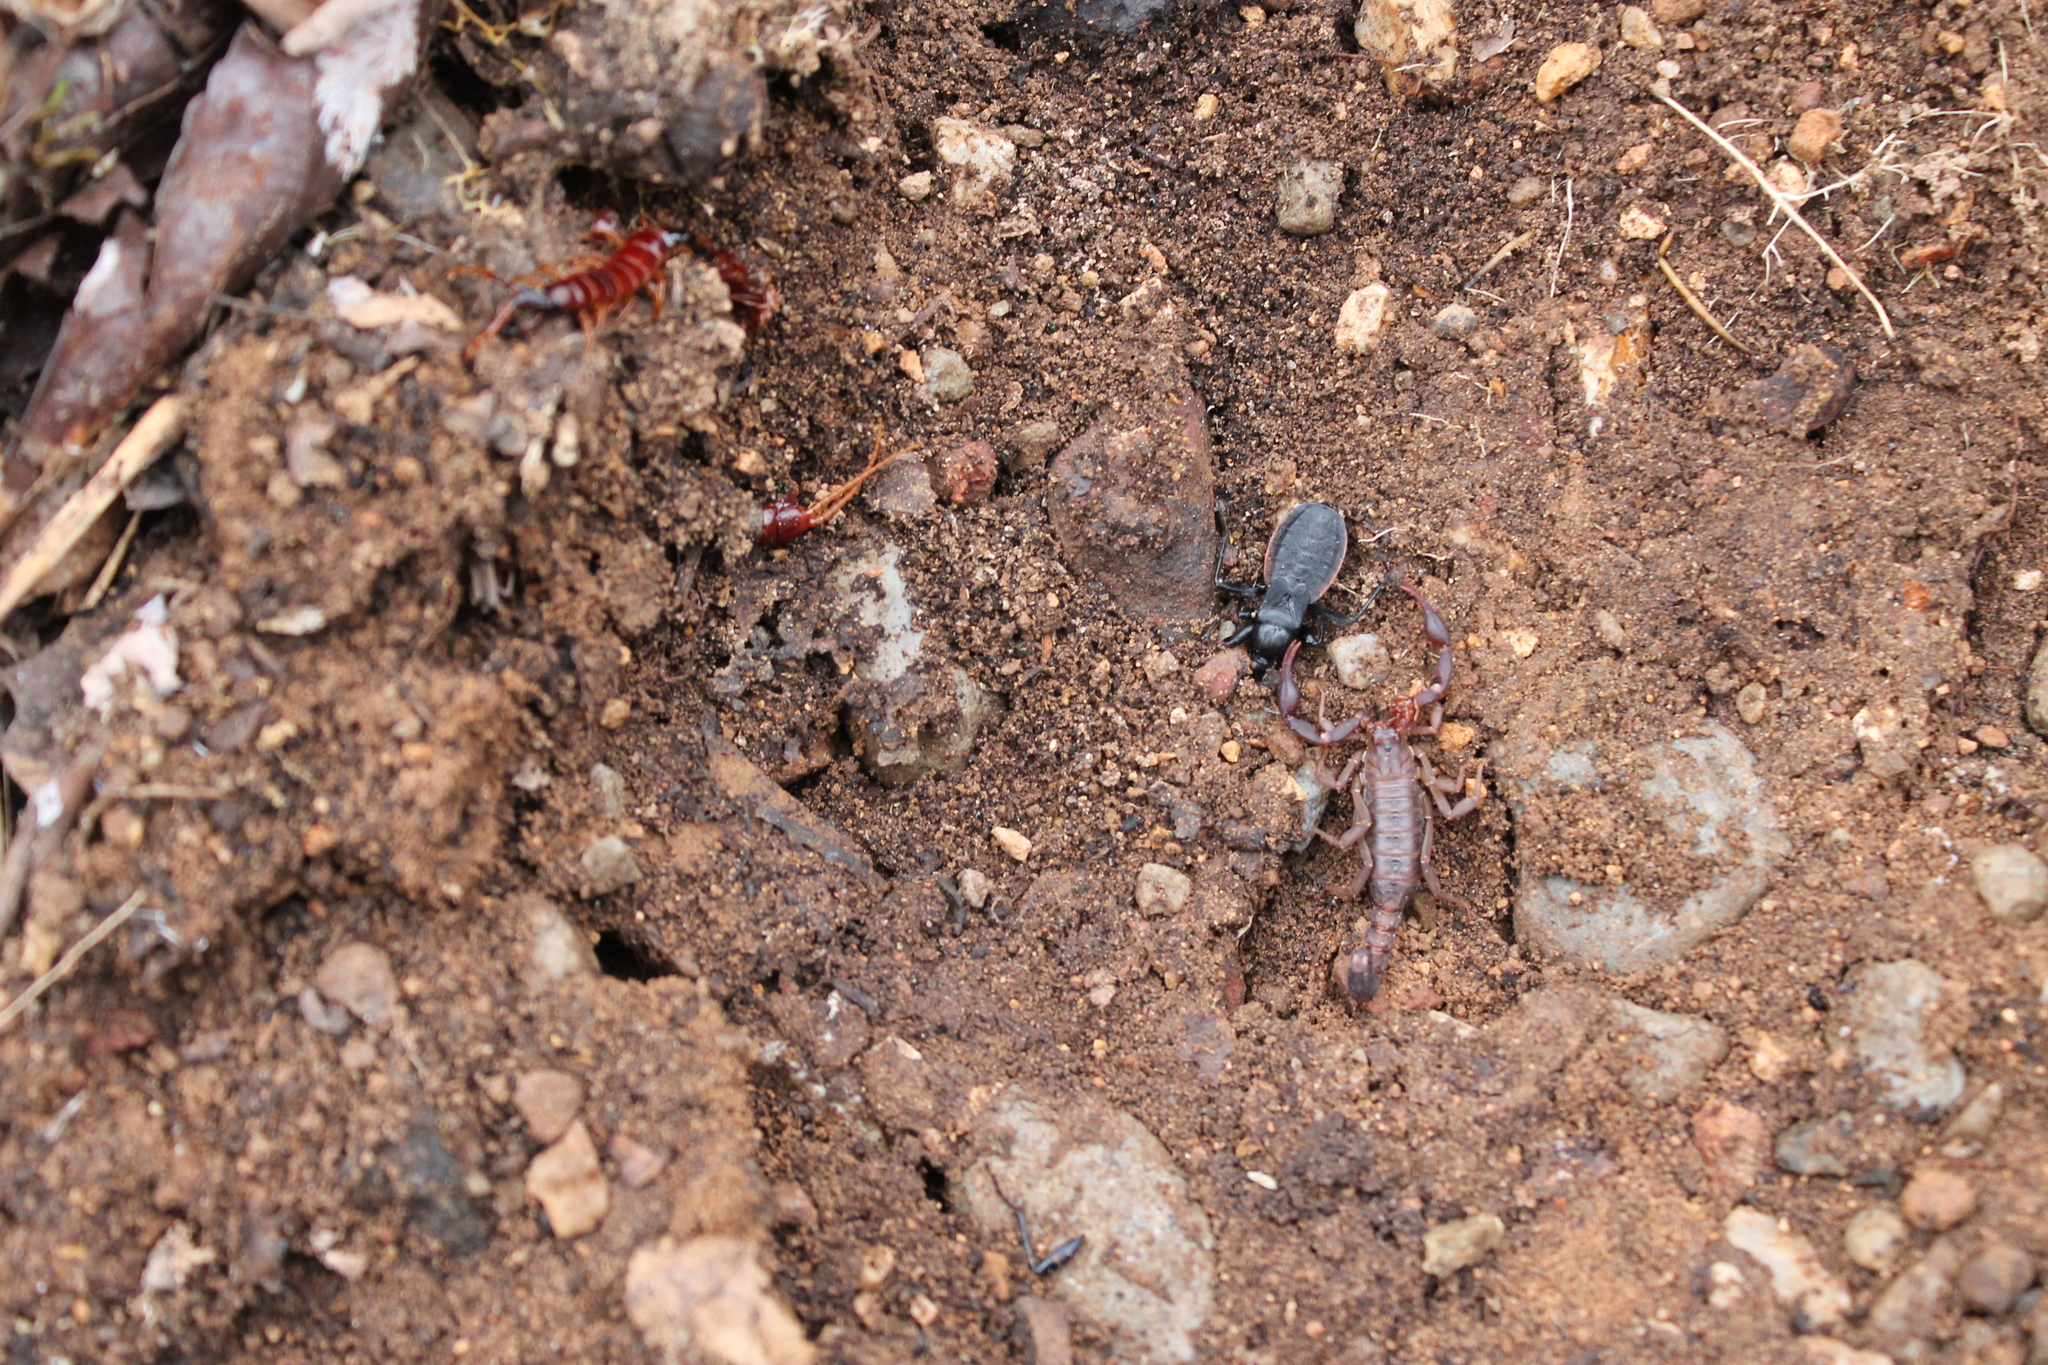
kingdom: Animalia
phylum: Arthropoda
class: Arachnida
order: Scorpiones
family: Vaejovidae
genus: Vaejovis
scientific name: Vaejovis carolinianus
